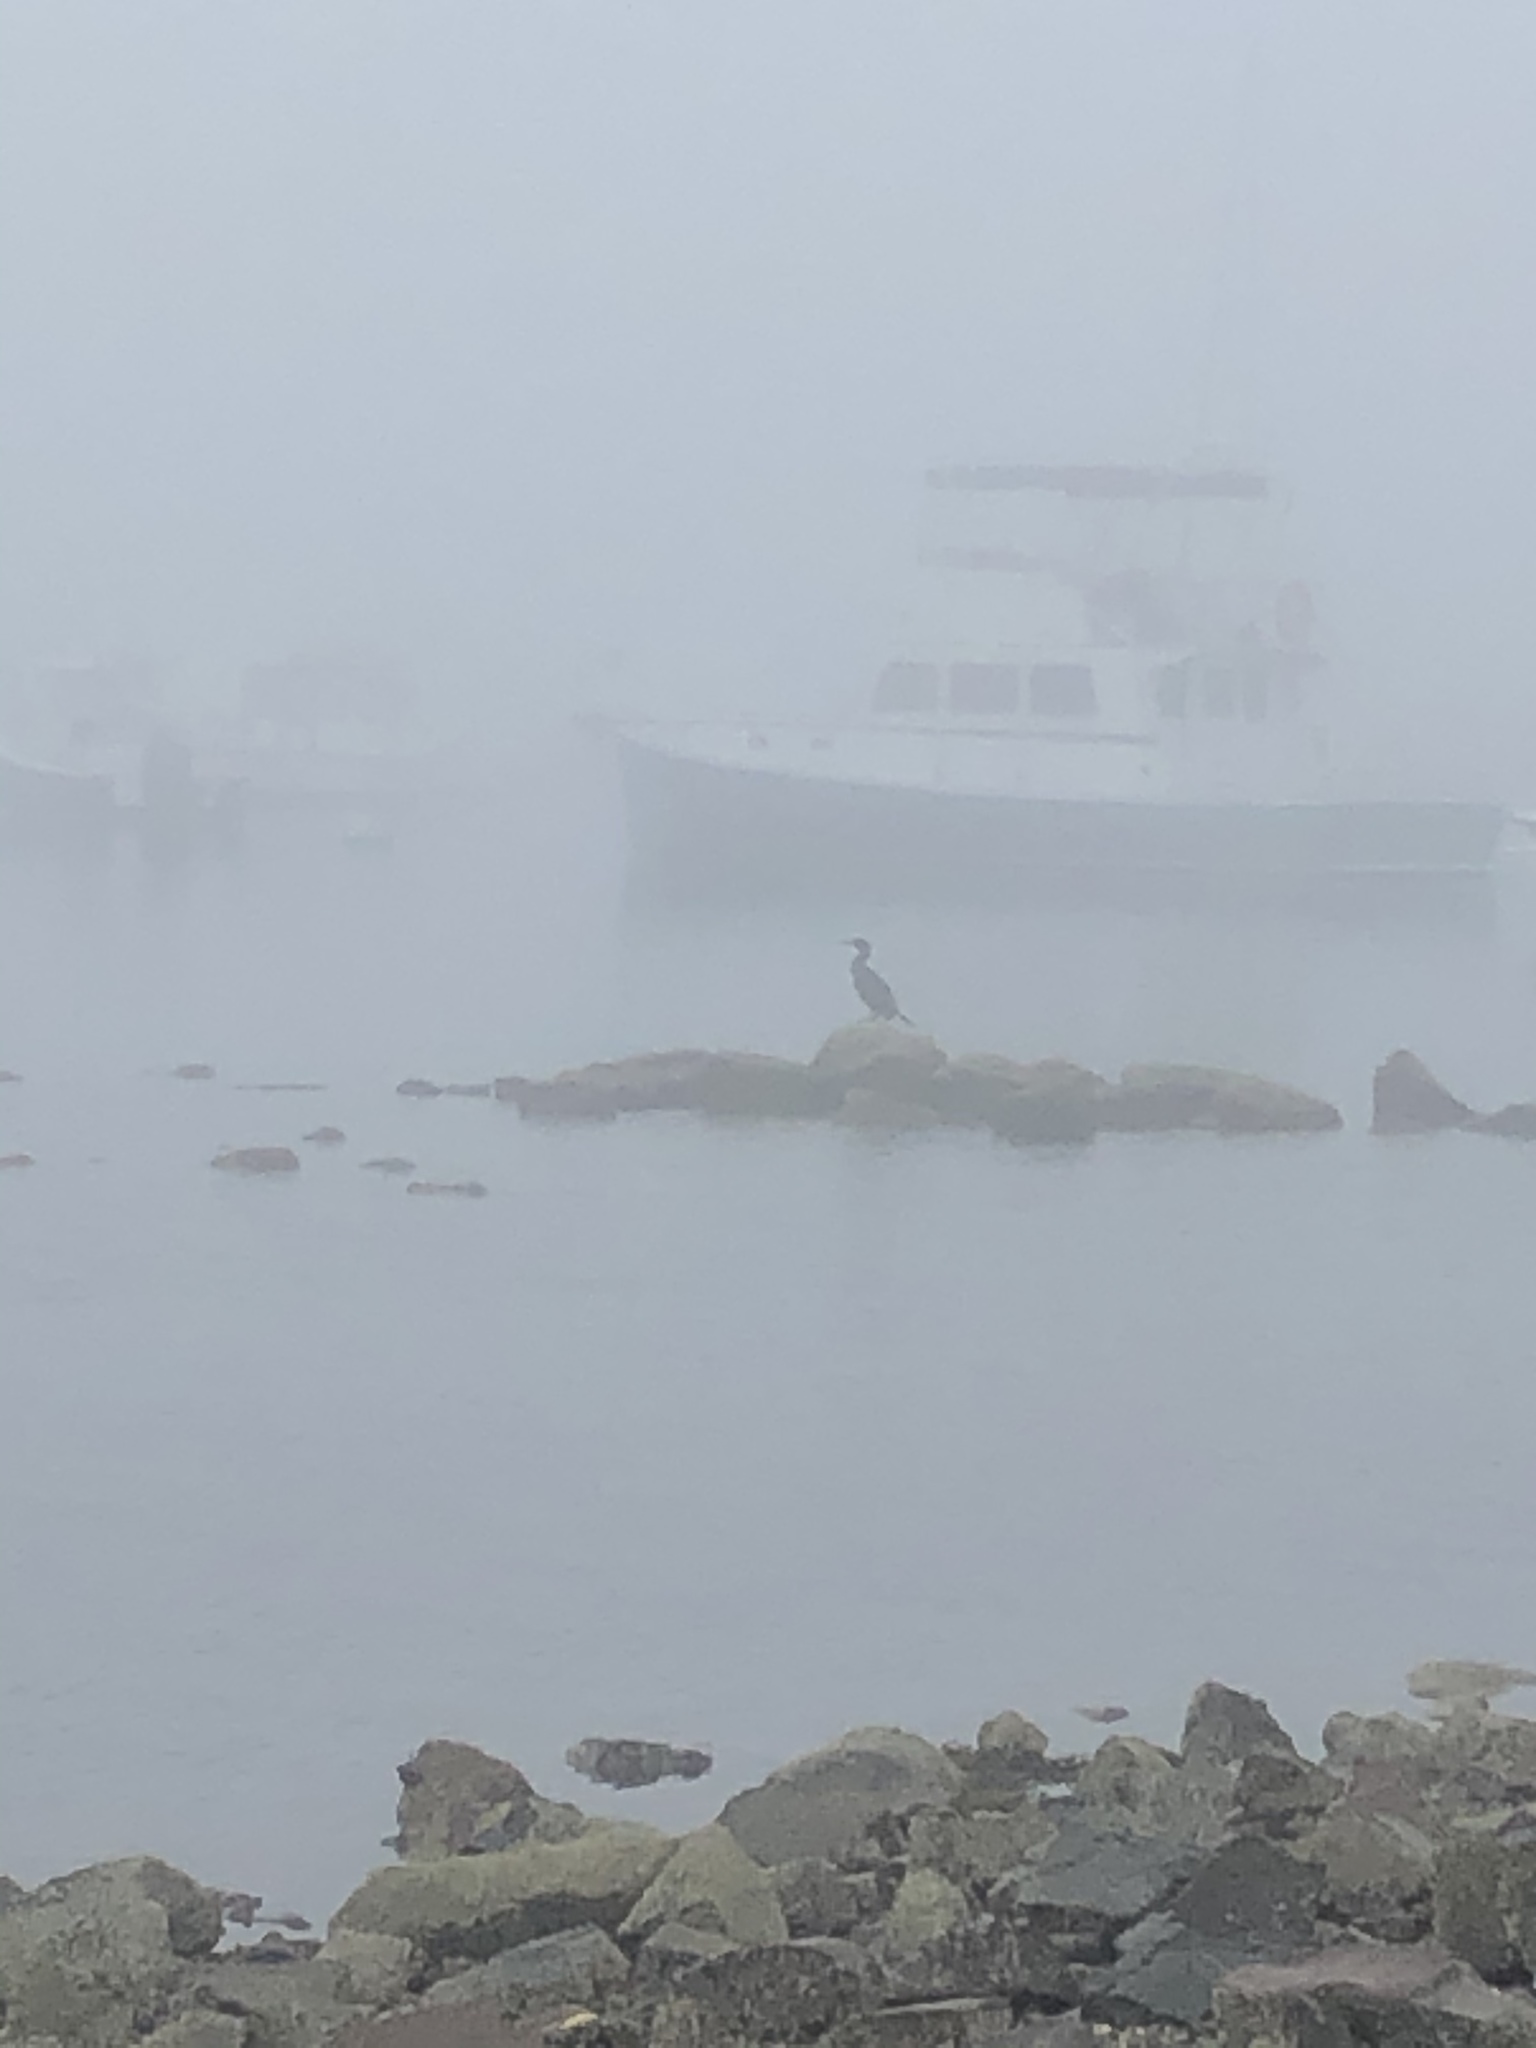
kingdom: Animalia
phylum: Chordata
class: Aves
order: Suliformes
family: Phalacrocoracidae
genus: Phalacrocorax
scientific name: Phalacrocorax auritus
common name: Double-crested cormorant
